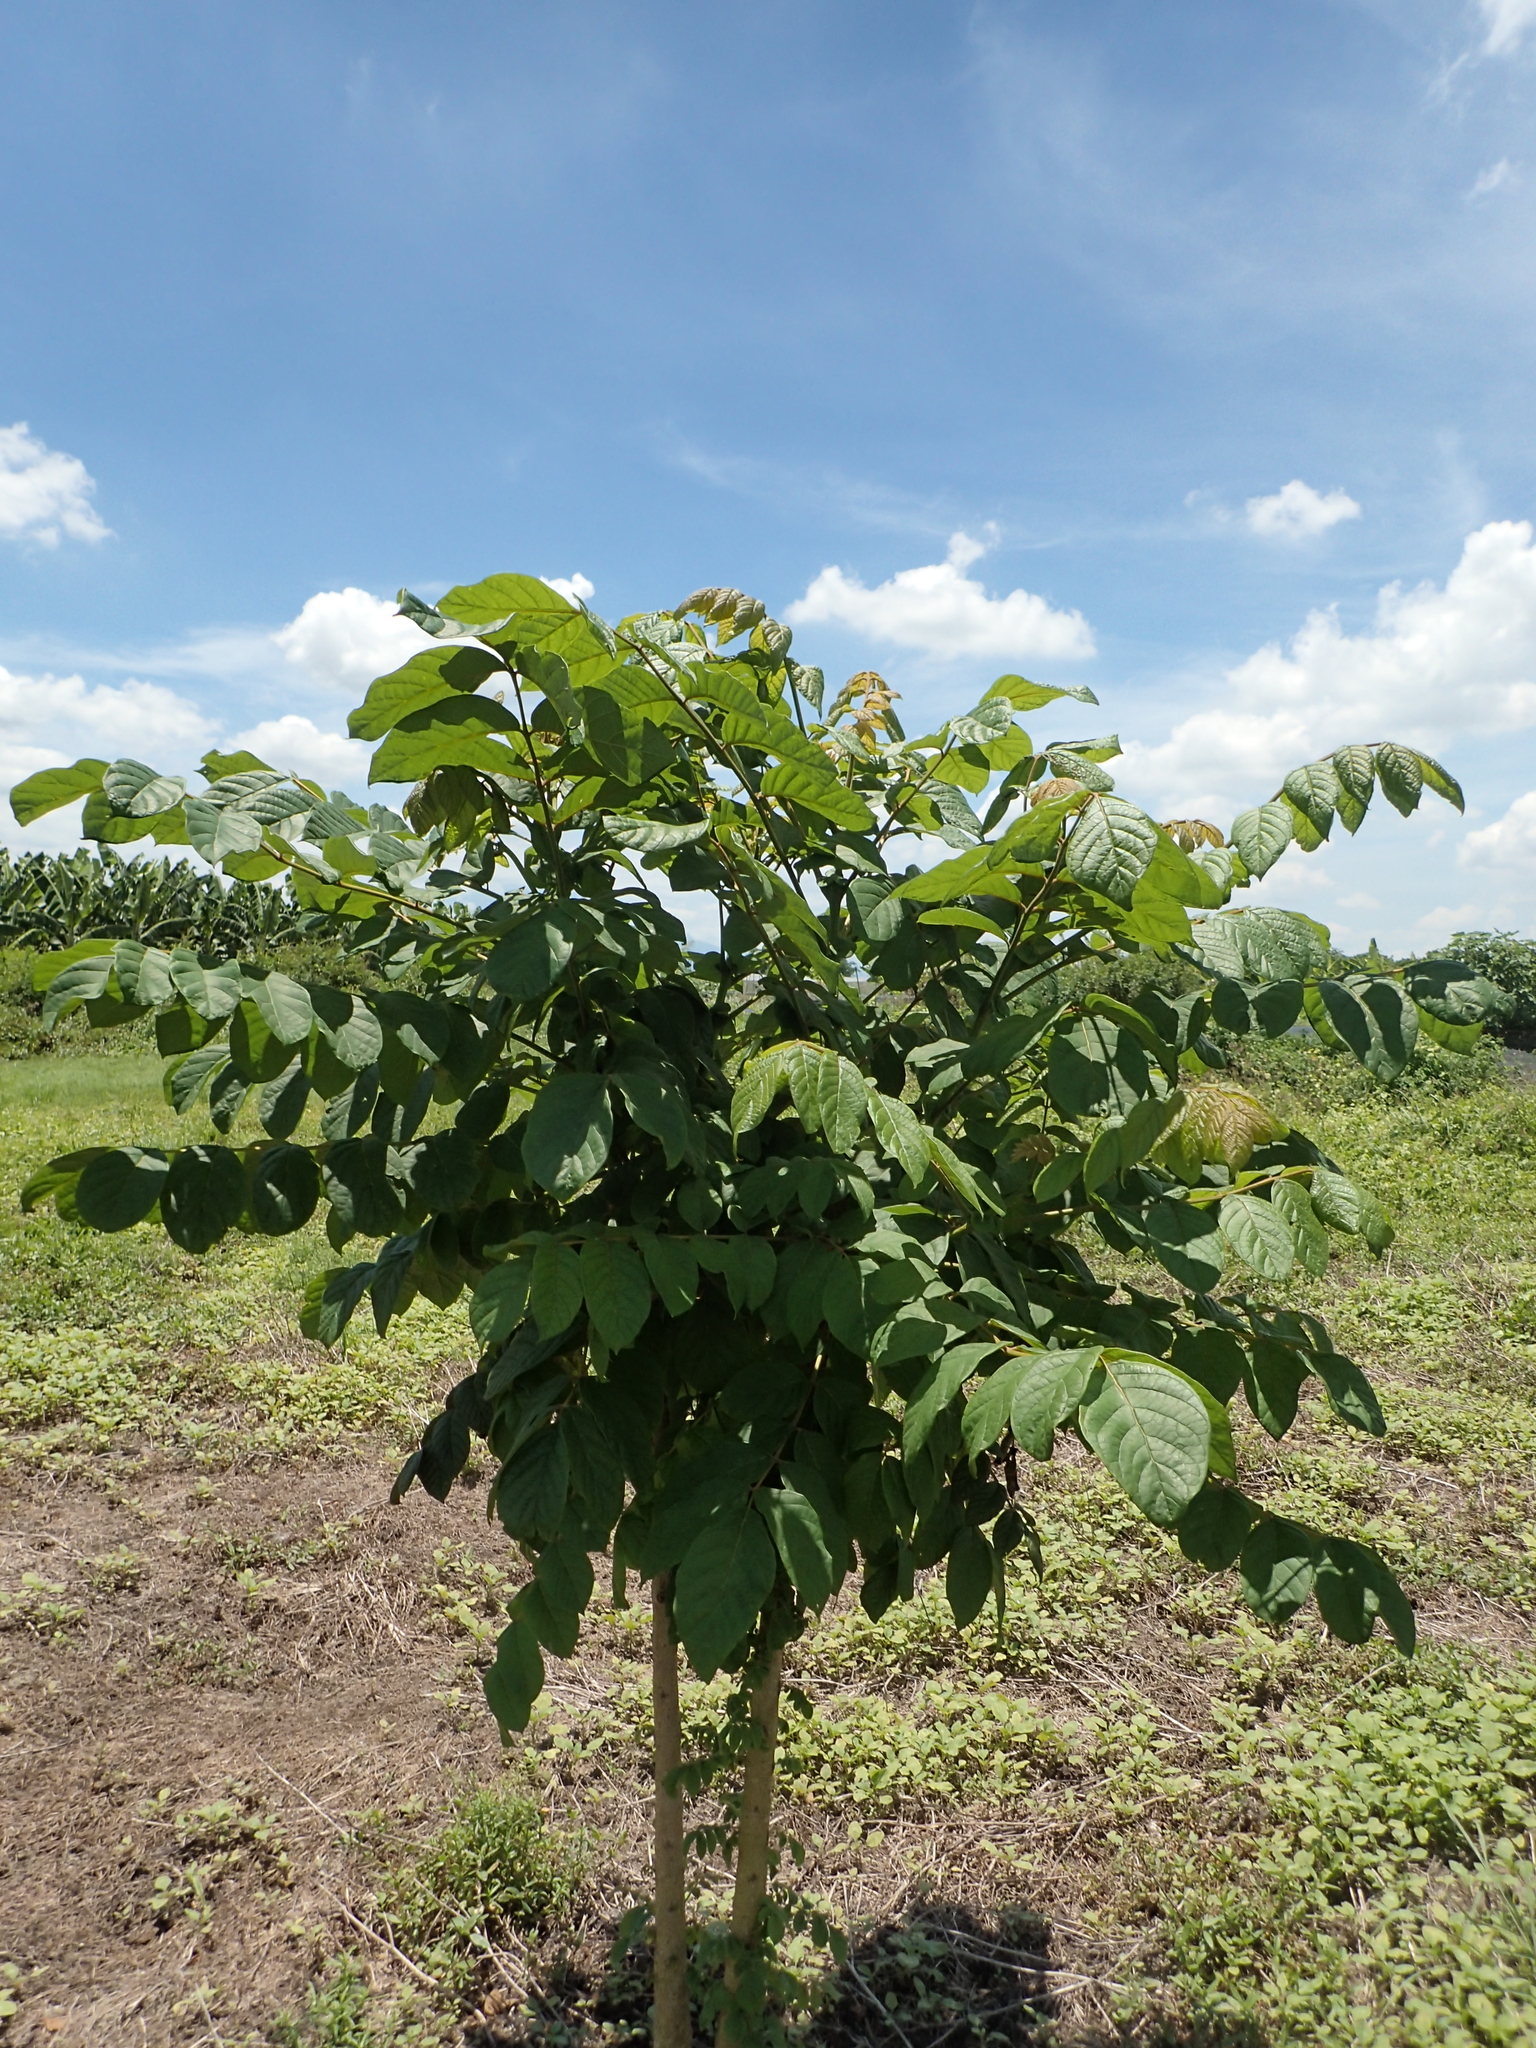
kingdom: Plantae
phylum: Tracheophyta
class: Magnoliopsida
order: Lamiales
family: Bignoniaceae
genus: Spathodea
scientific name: Spathodea campanulata
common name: African tuliptree
